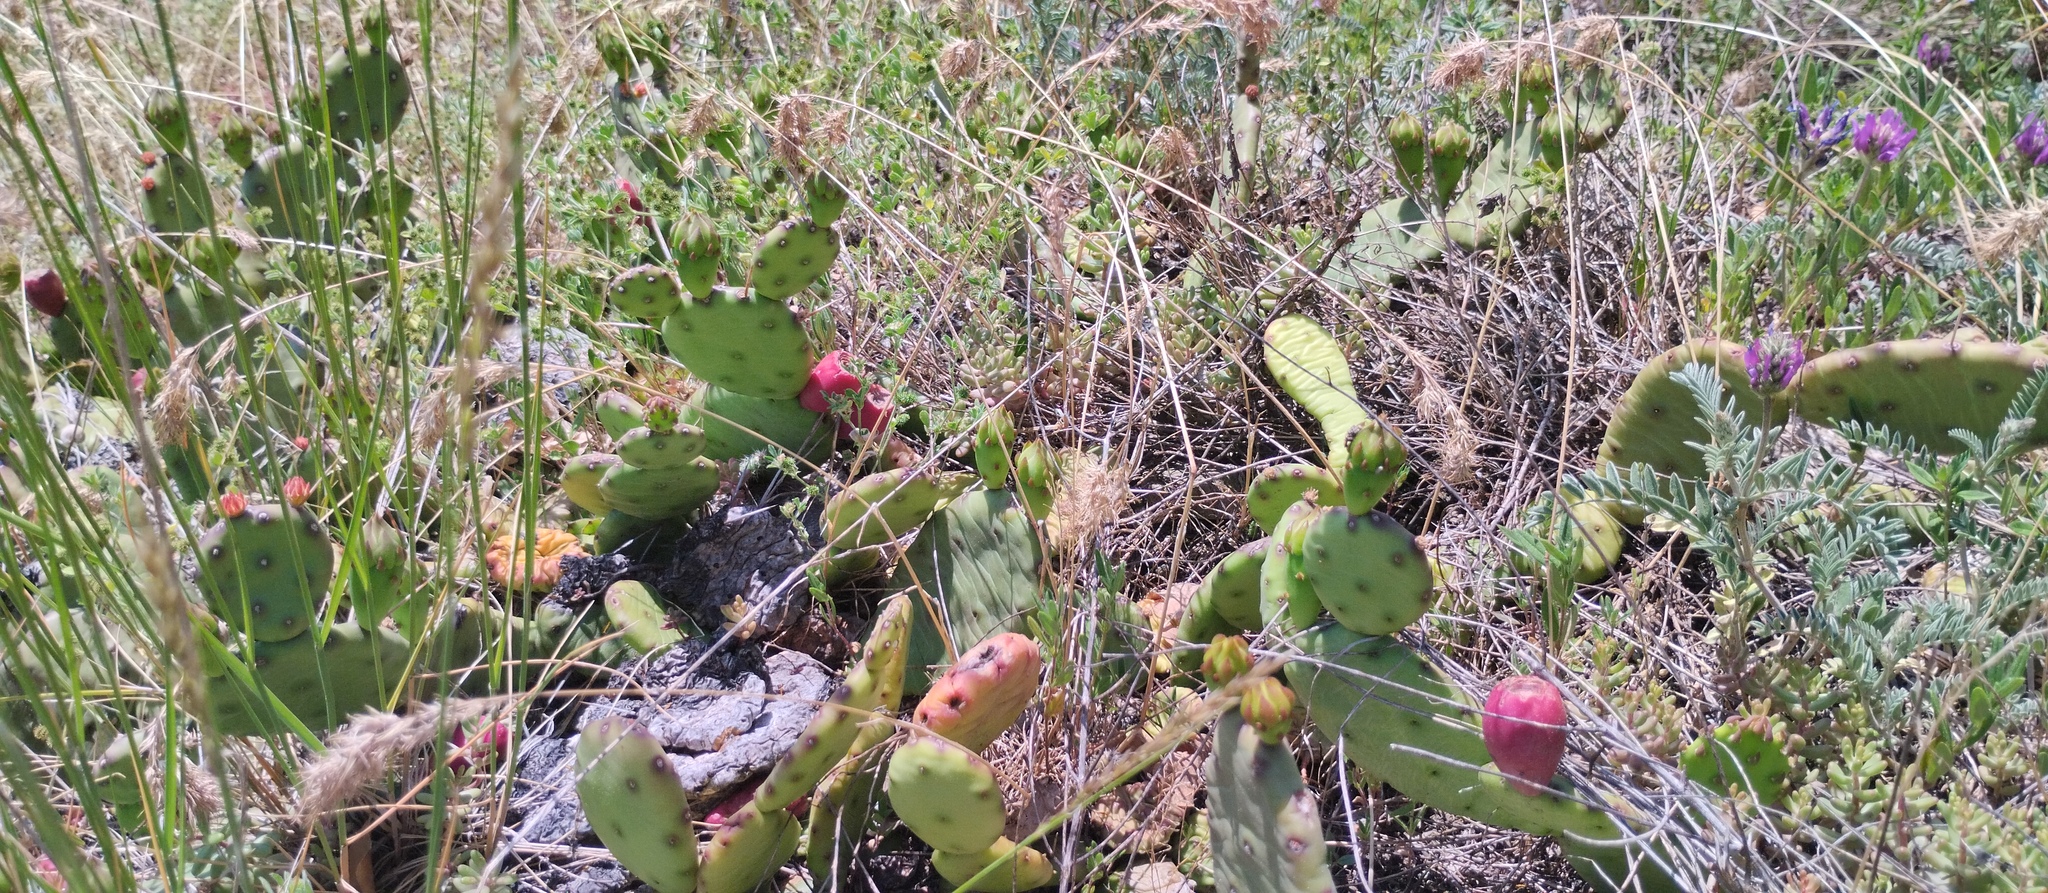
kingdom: Plantae
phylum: Tracheophyta
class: Magnoliopsida
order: Caryophyllales
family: Cactaceae
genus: Opuntia
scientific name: Opuntia humifusa
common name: Eastern prickly-pear
